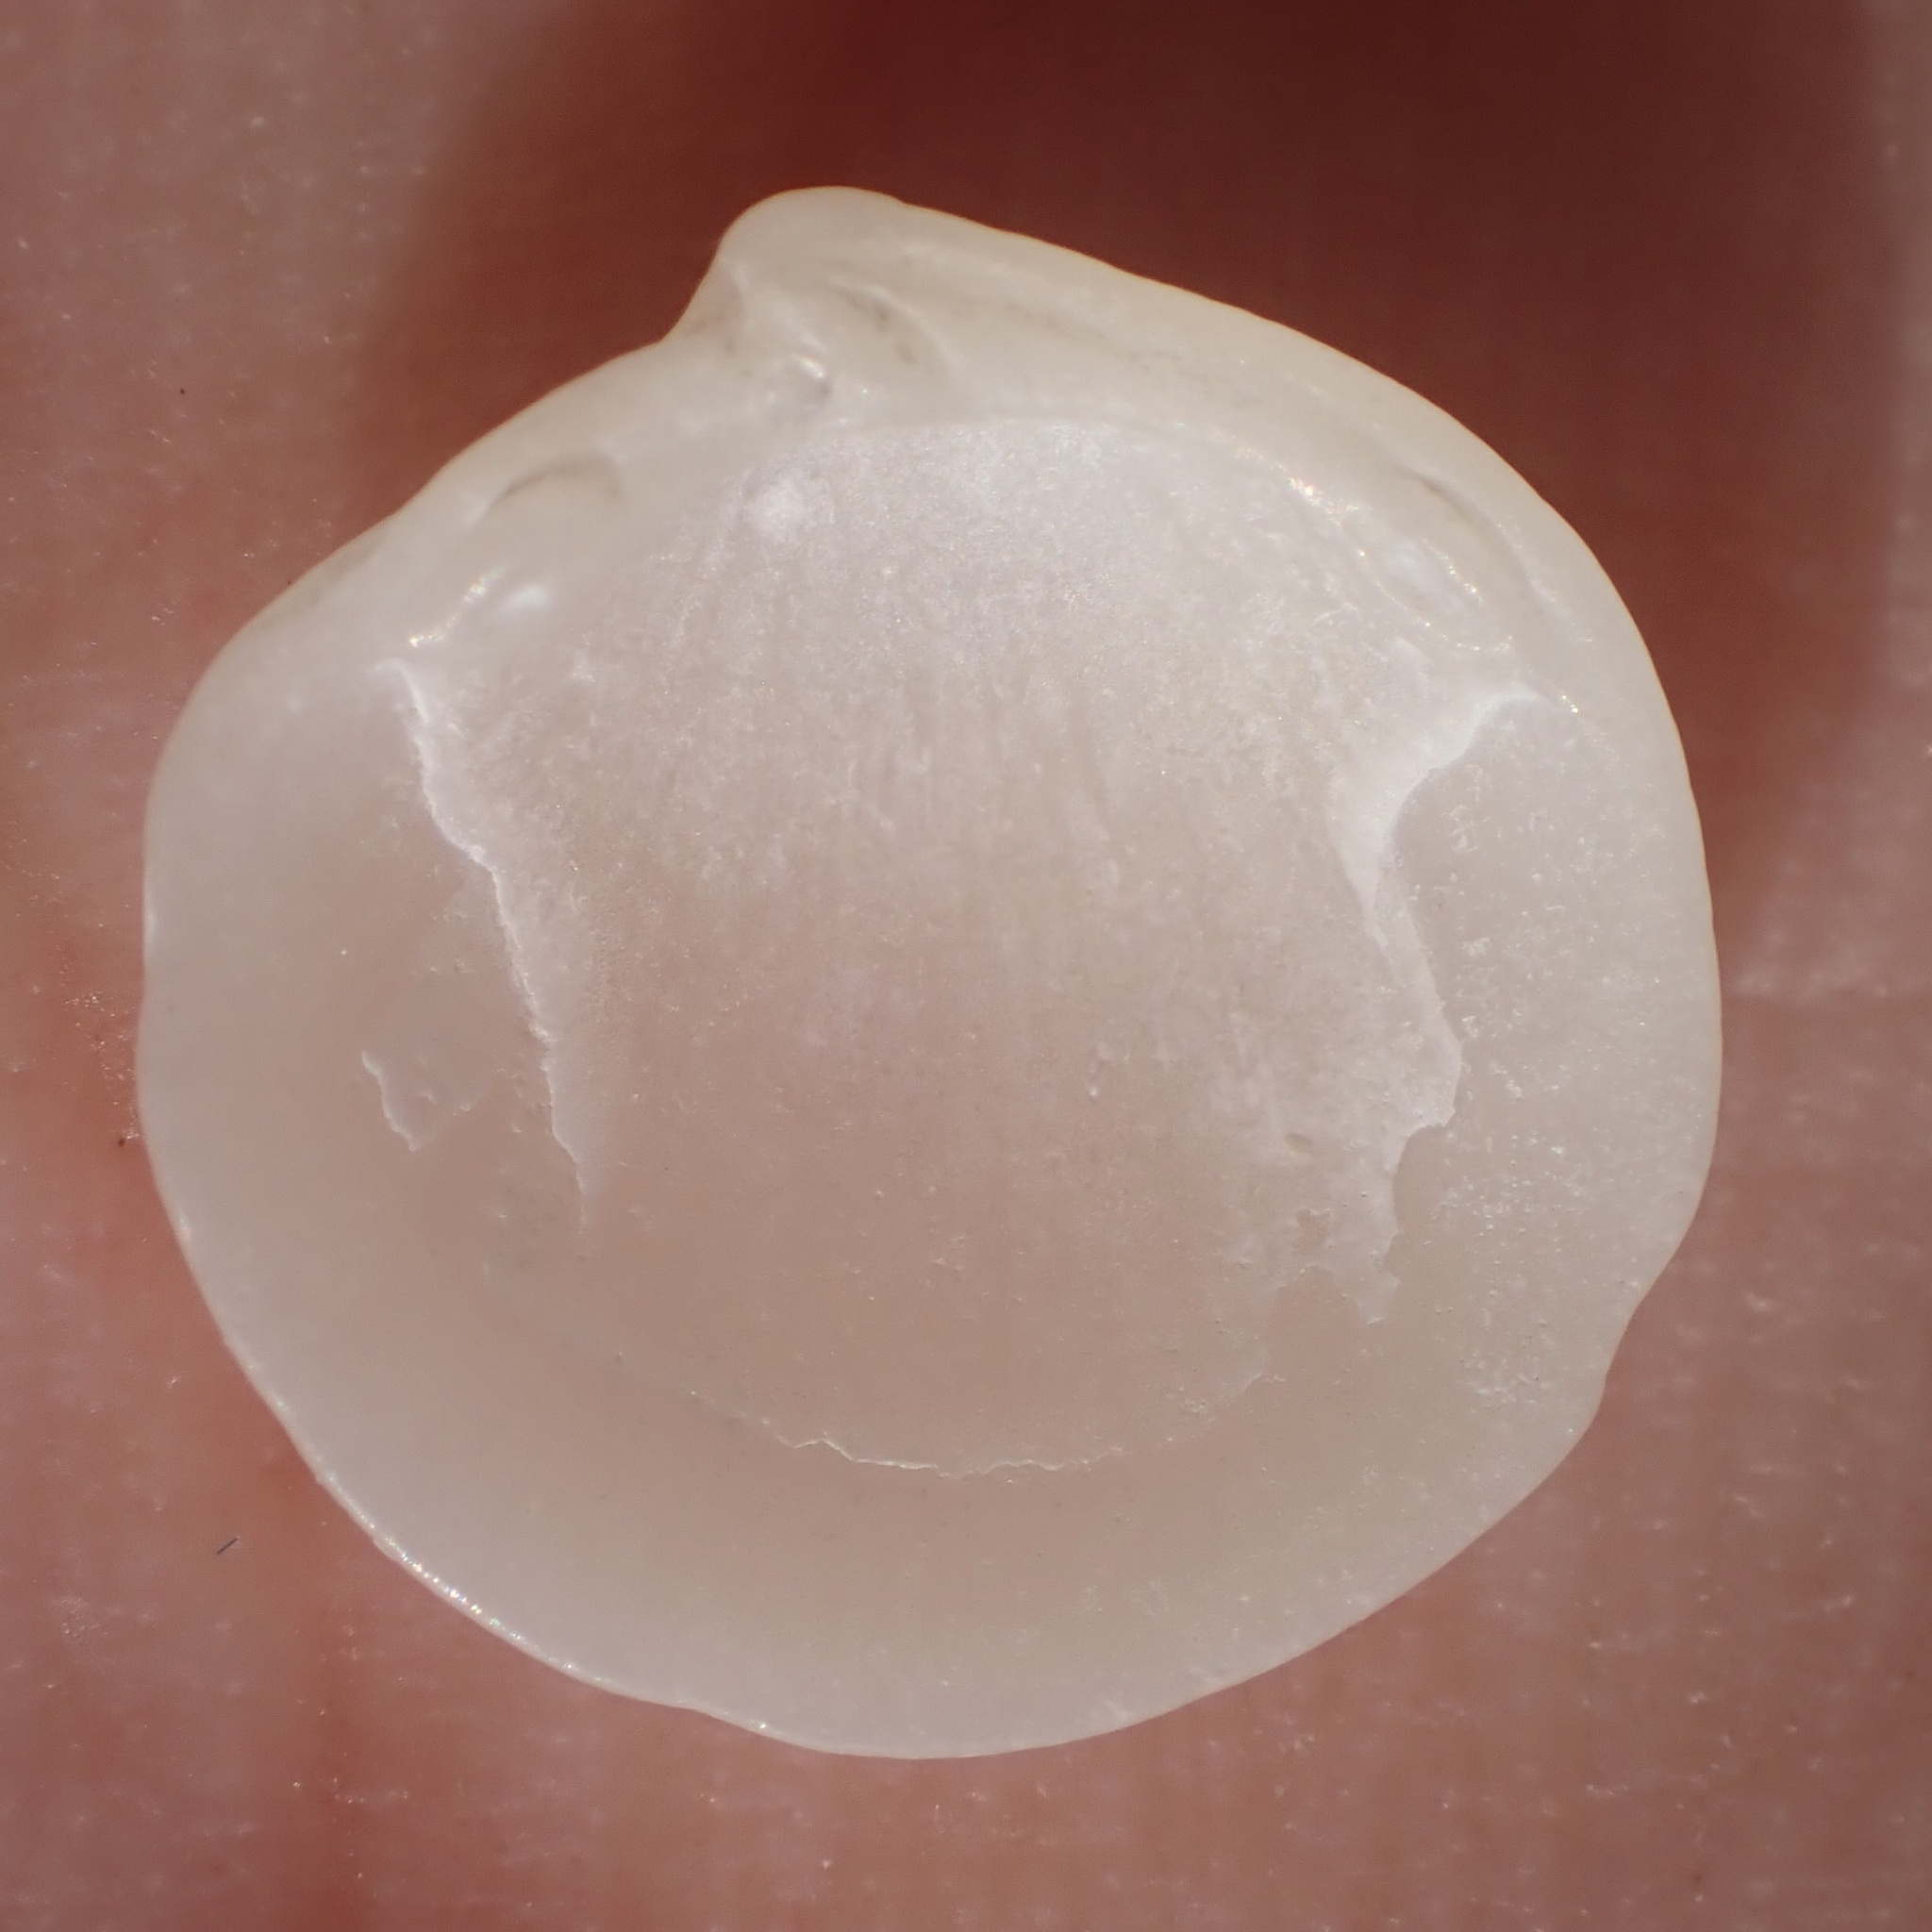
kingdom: Animalia
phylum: Mollusca
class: Bivalvia
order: Lucinida
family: Lucinidae
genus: Lucinisca
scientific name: Lucinisca nassula
